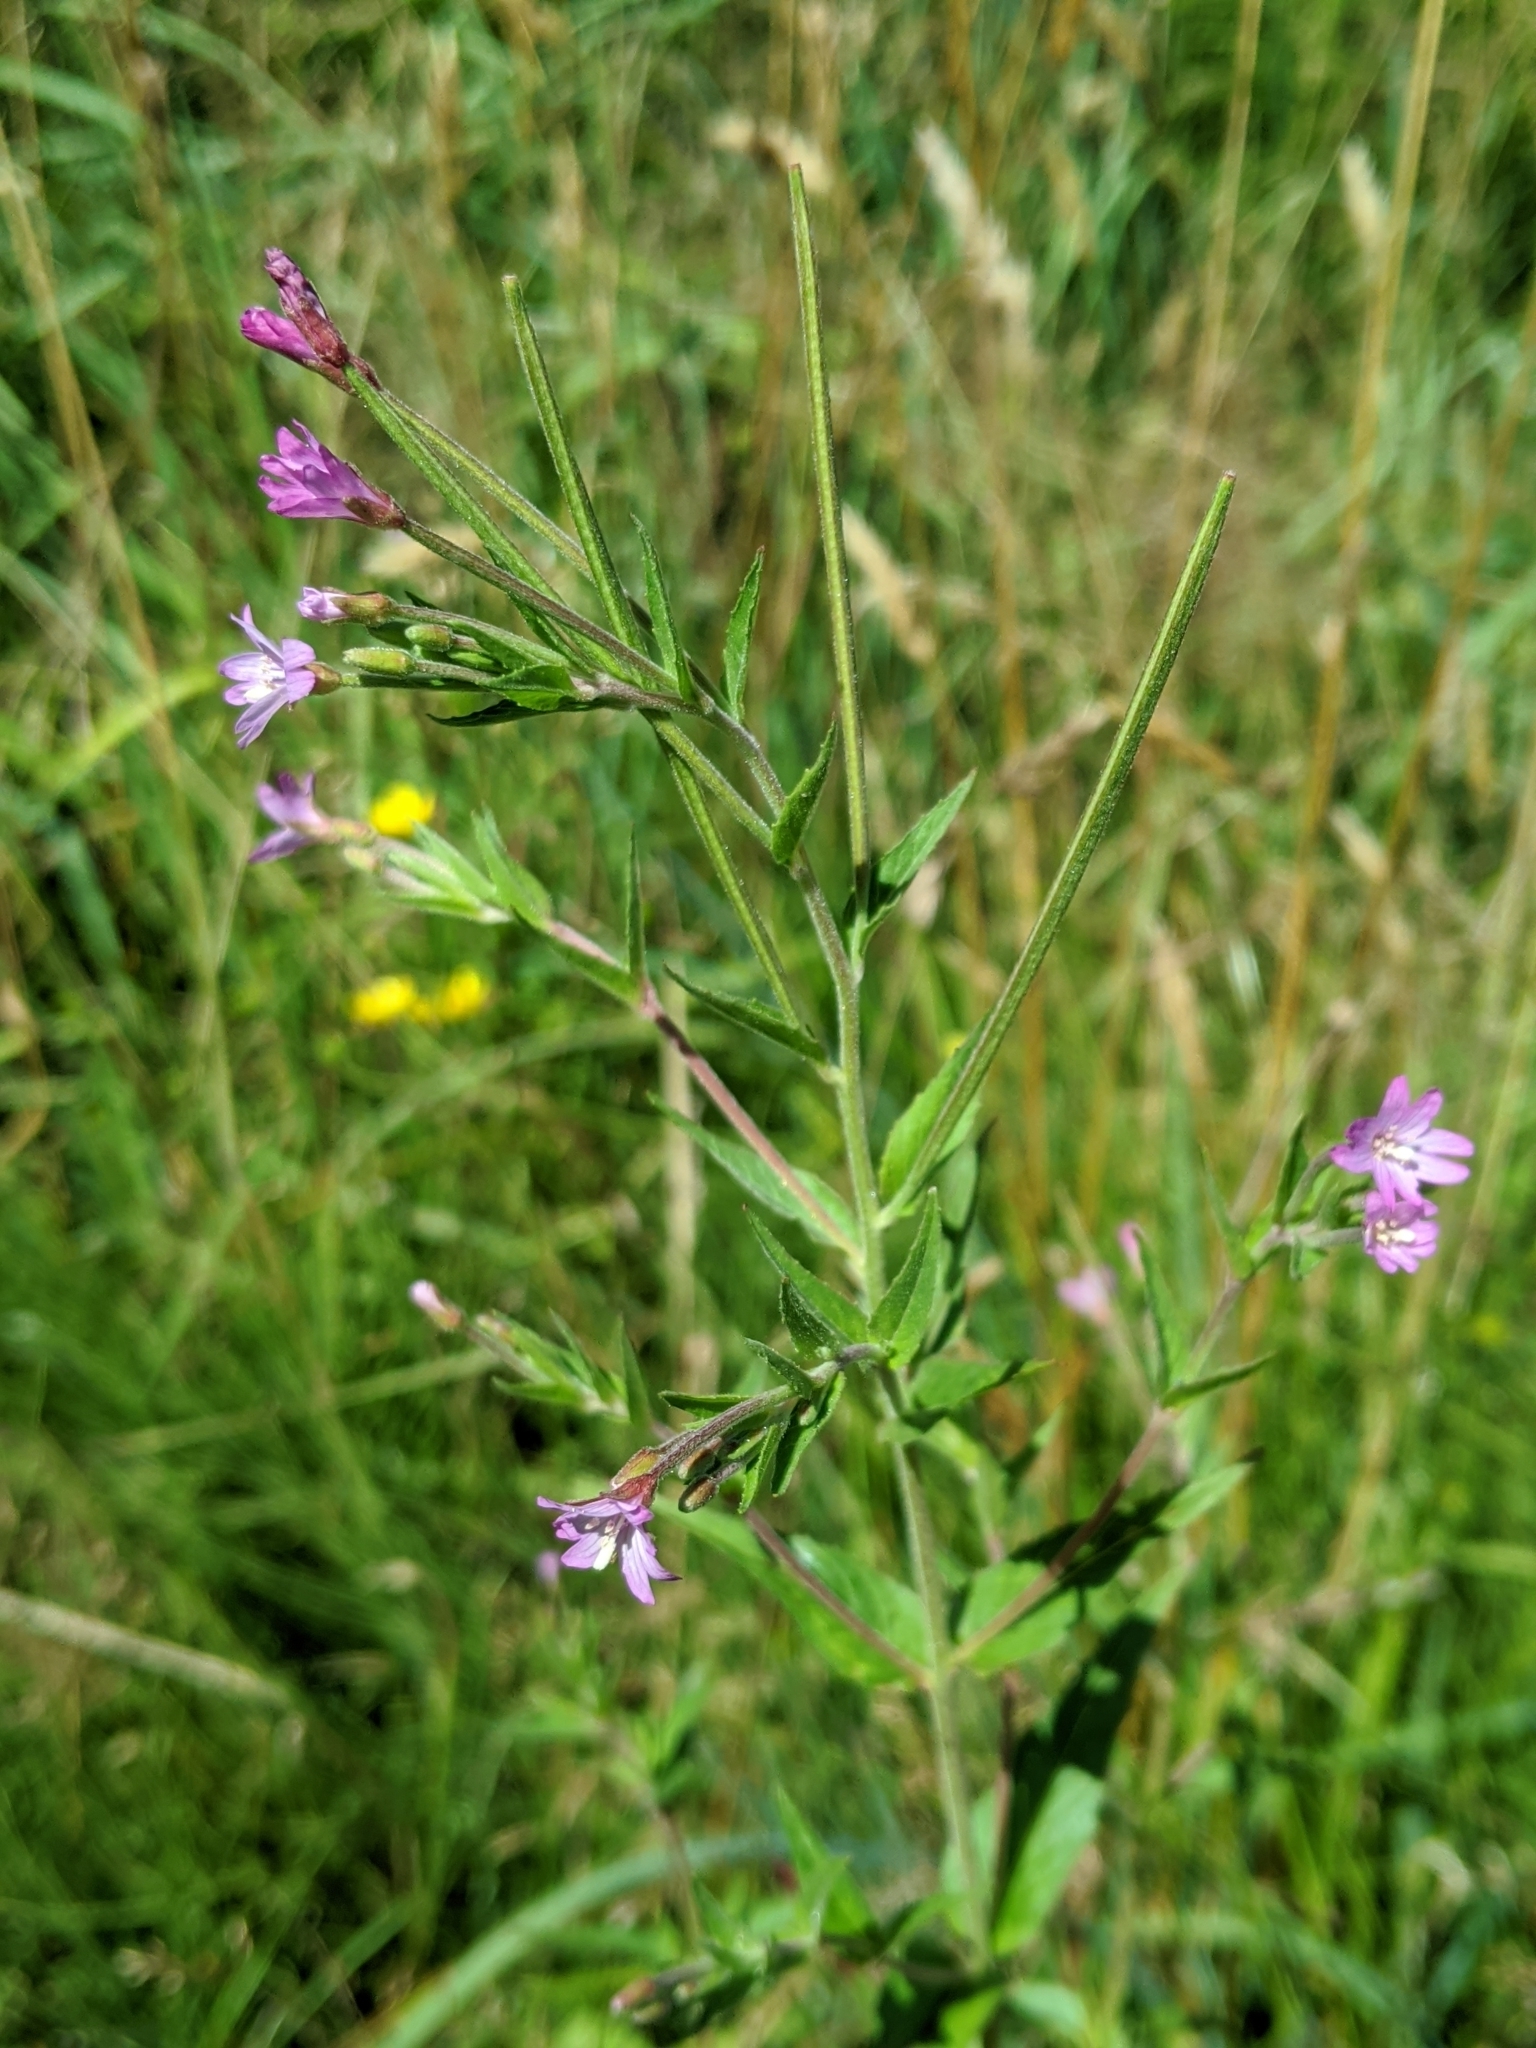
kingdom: Plantae
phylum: Tracheophyta
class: Magnoliopsida
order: Myrtales
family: Onagraceae
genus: Epilobium
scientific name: Epilobium ciliatum
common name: American willowherb
